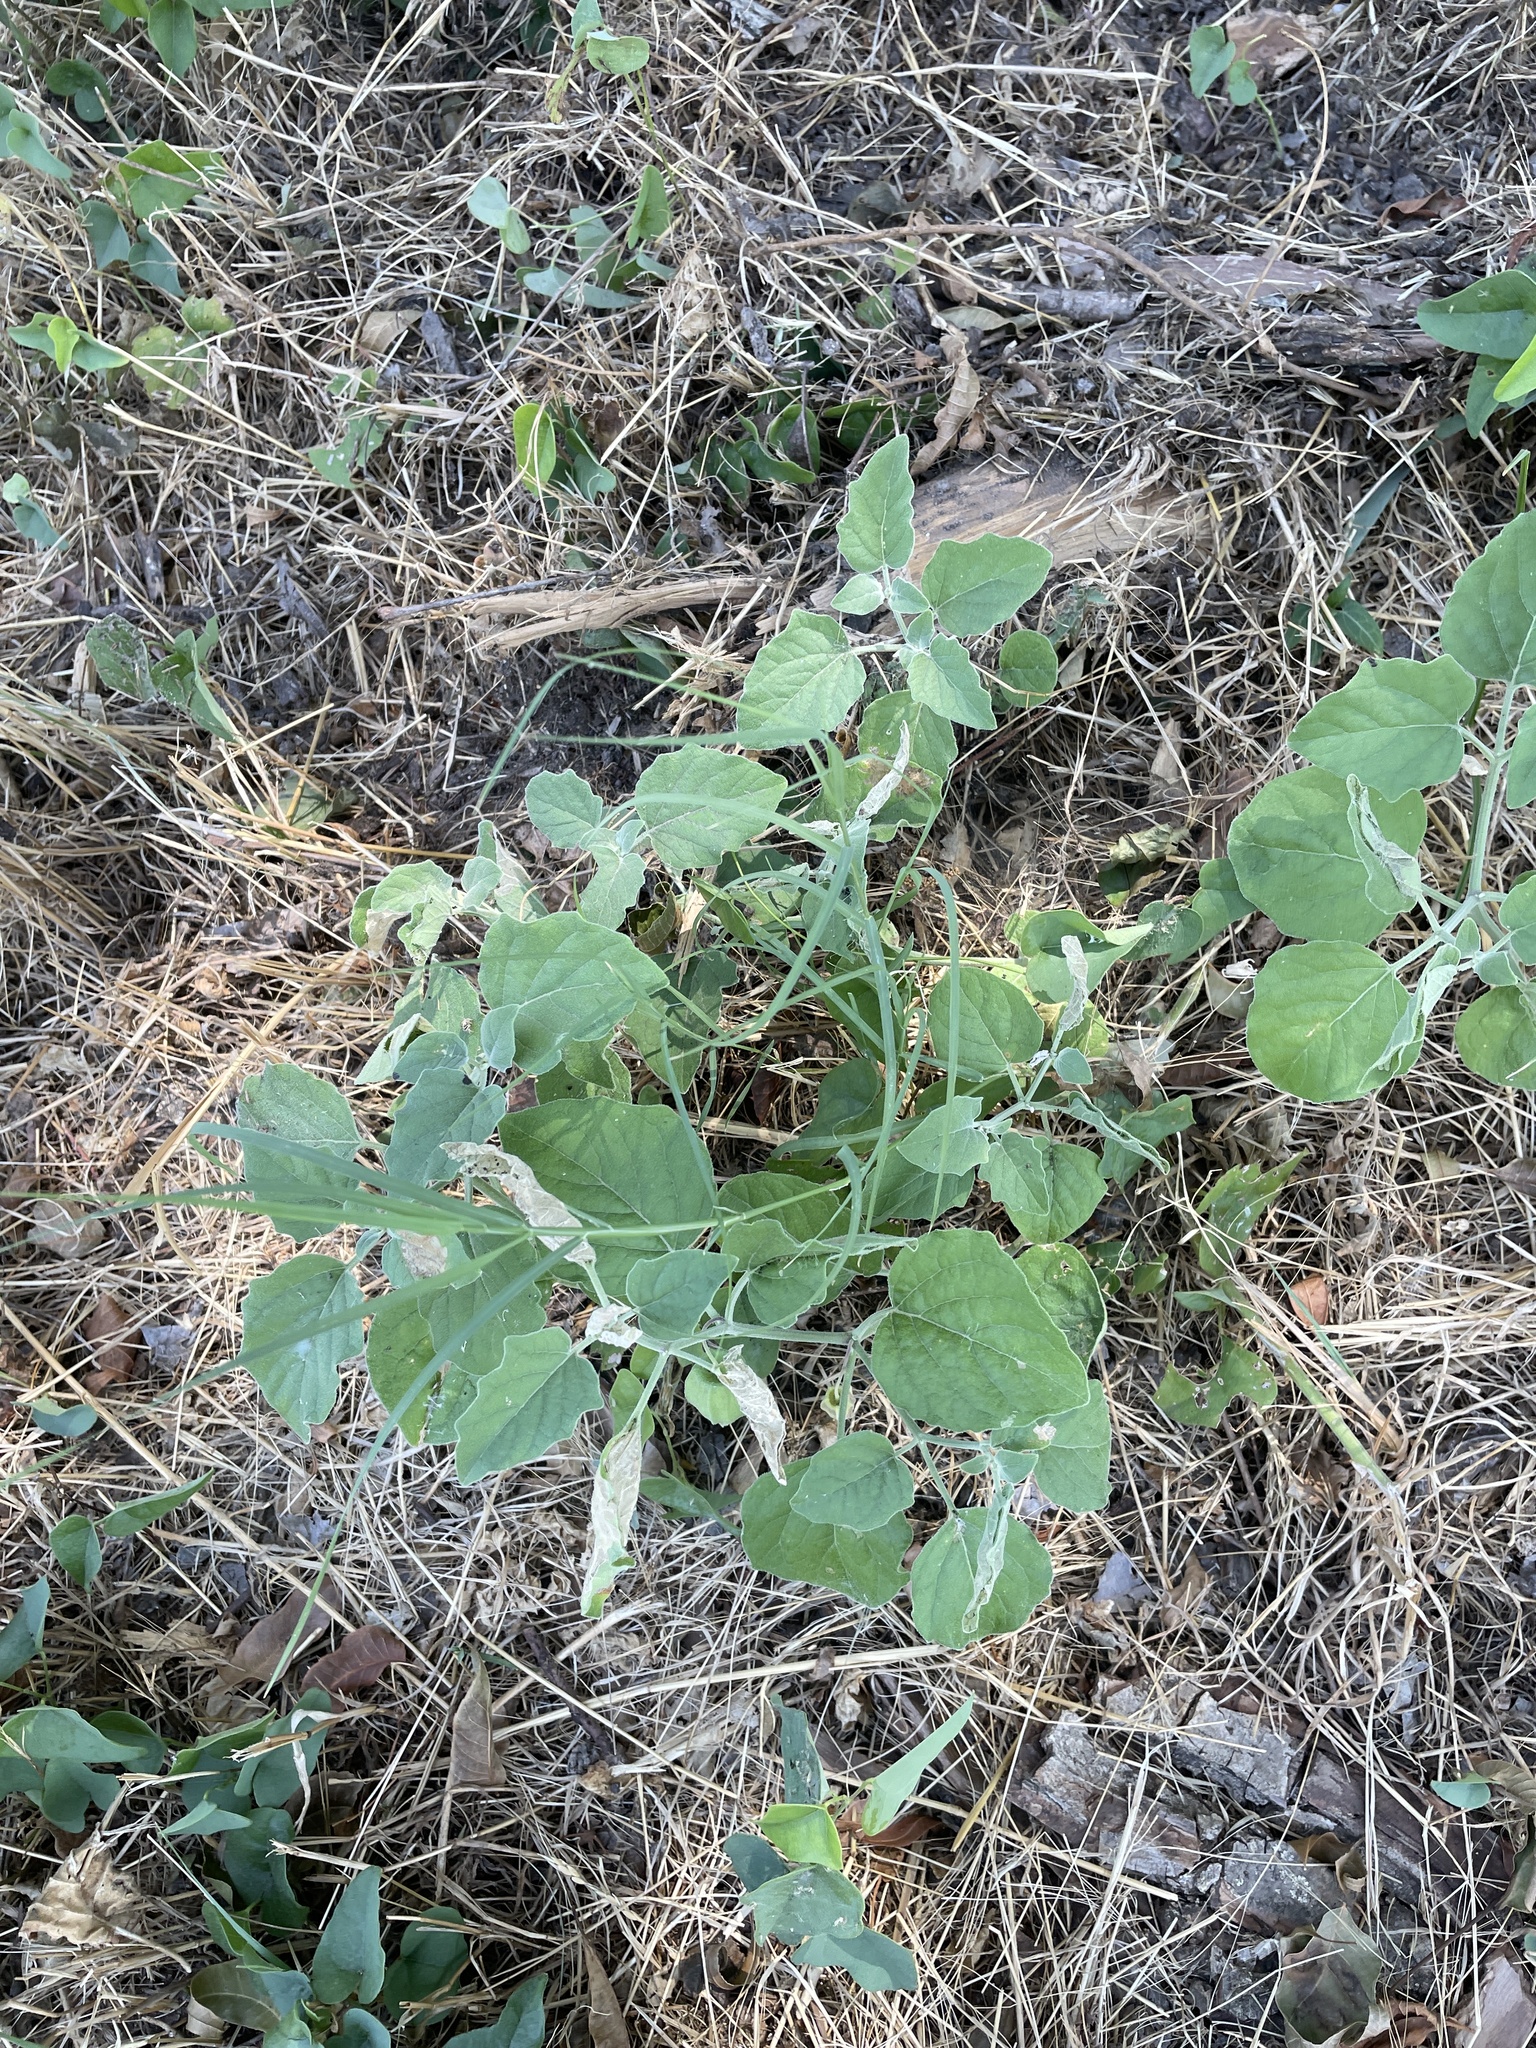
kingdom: Plantae
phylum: Tracheophyta
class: Magnoliopsida
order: Solanales
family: Solanaceae
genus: Physalis
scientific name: Physalis mollis
